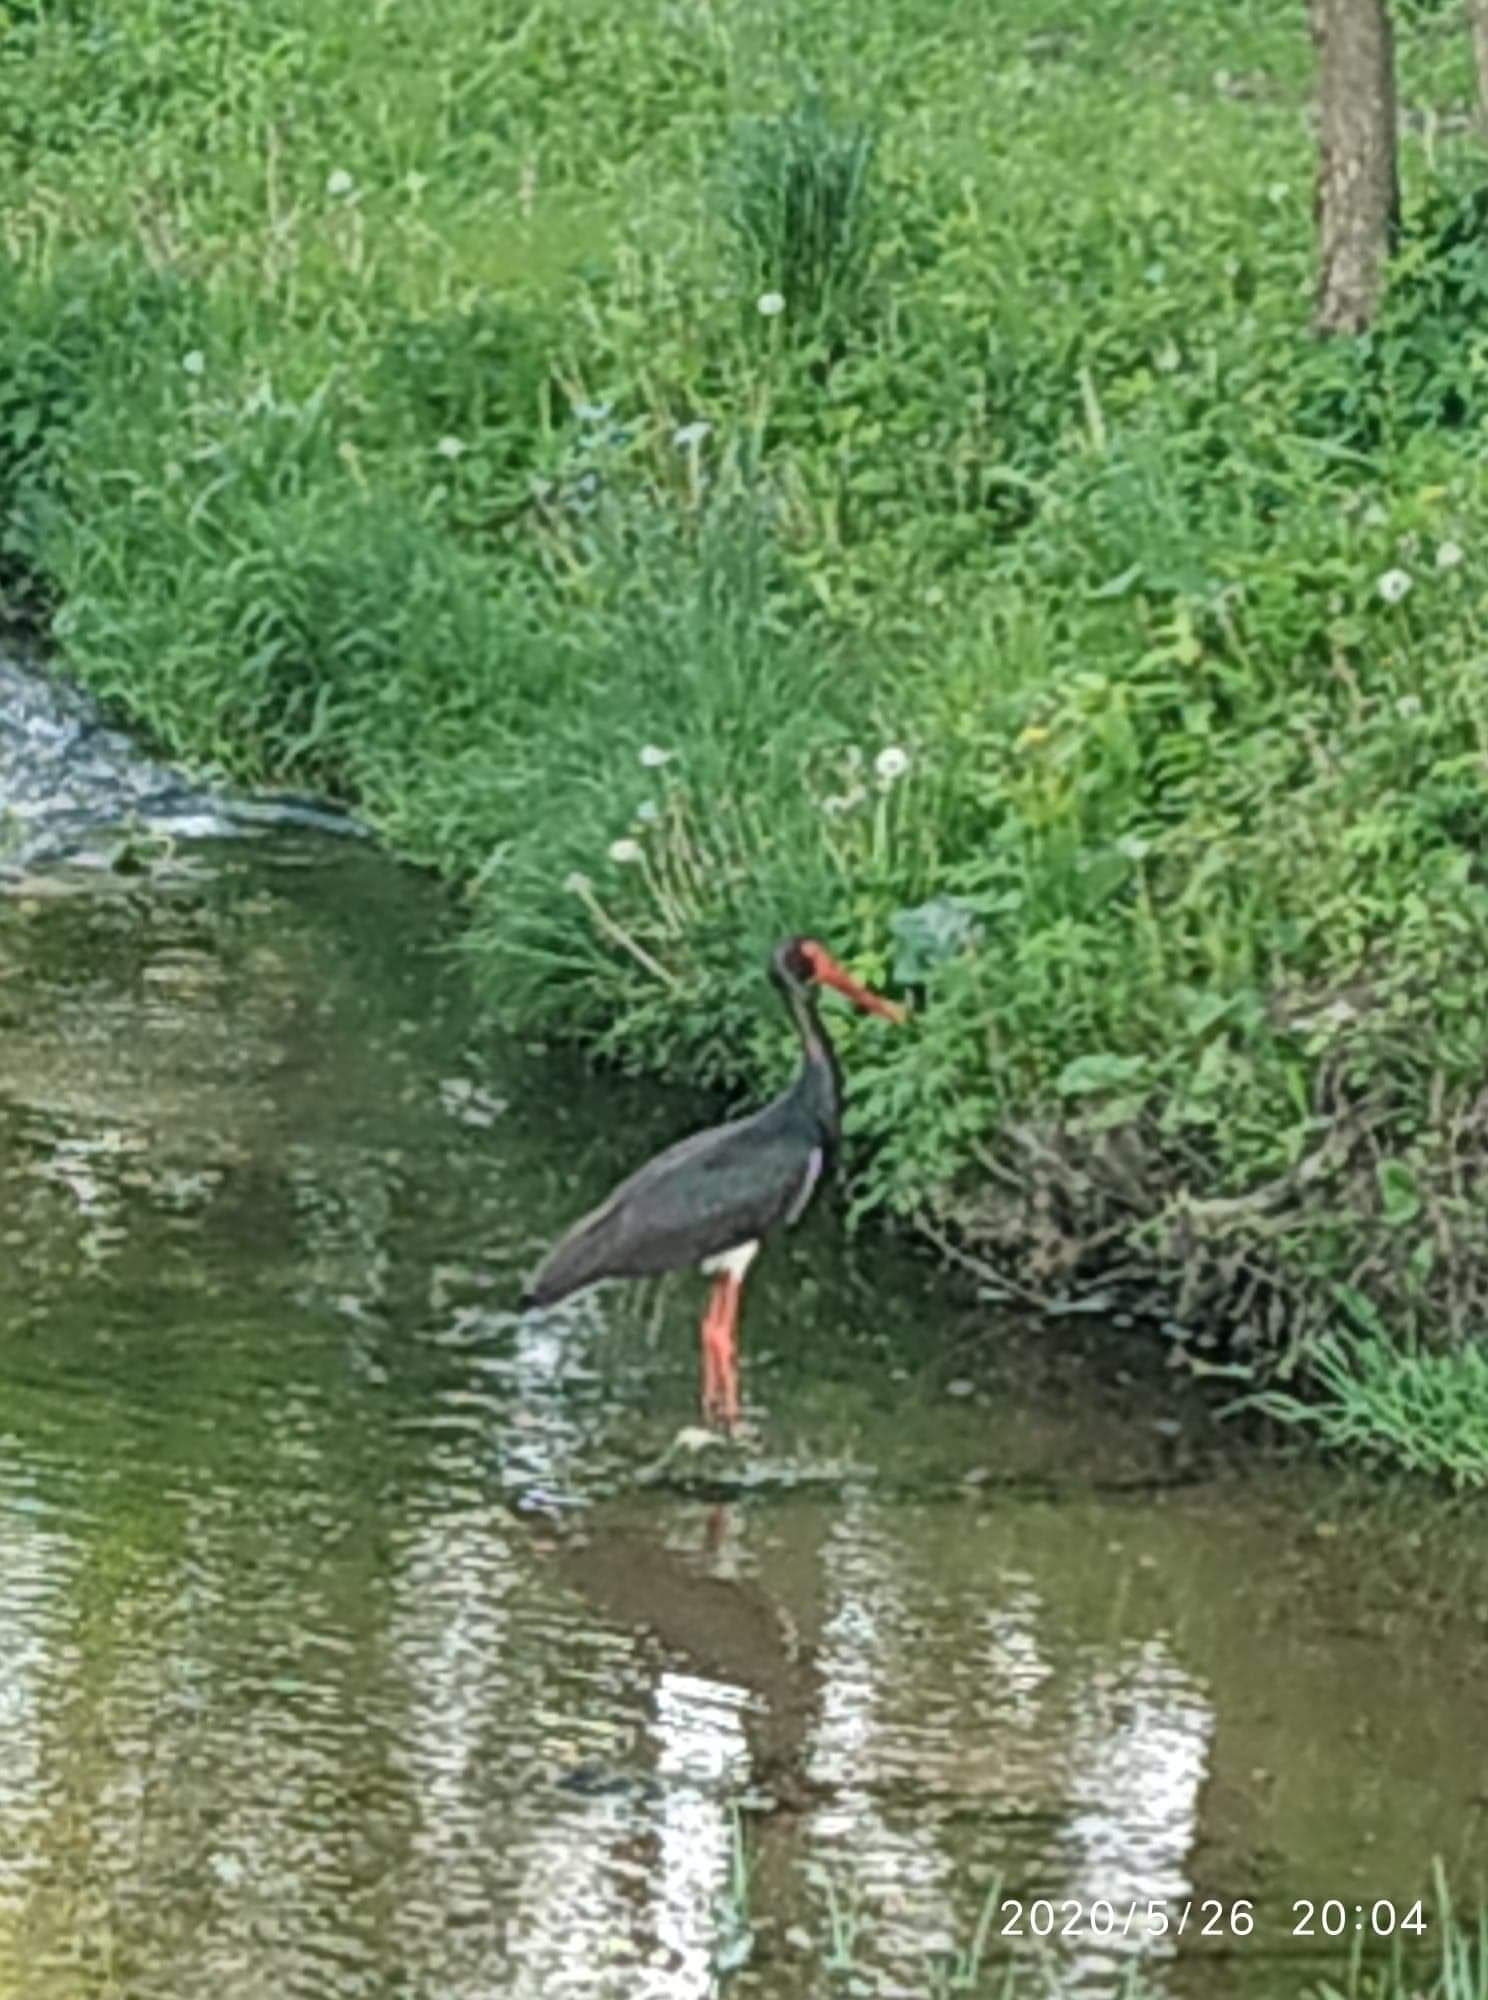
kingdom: Animalia
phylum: Chordata
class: Aves
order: Ciconiiformes
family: Ciconiidae
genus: Ciconia
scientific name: Ciconia nigra
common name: Black stork
